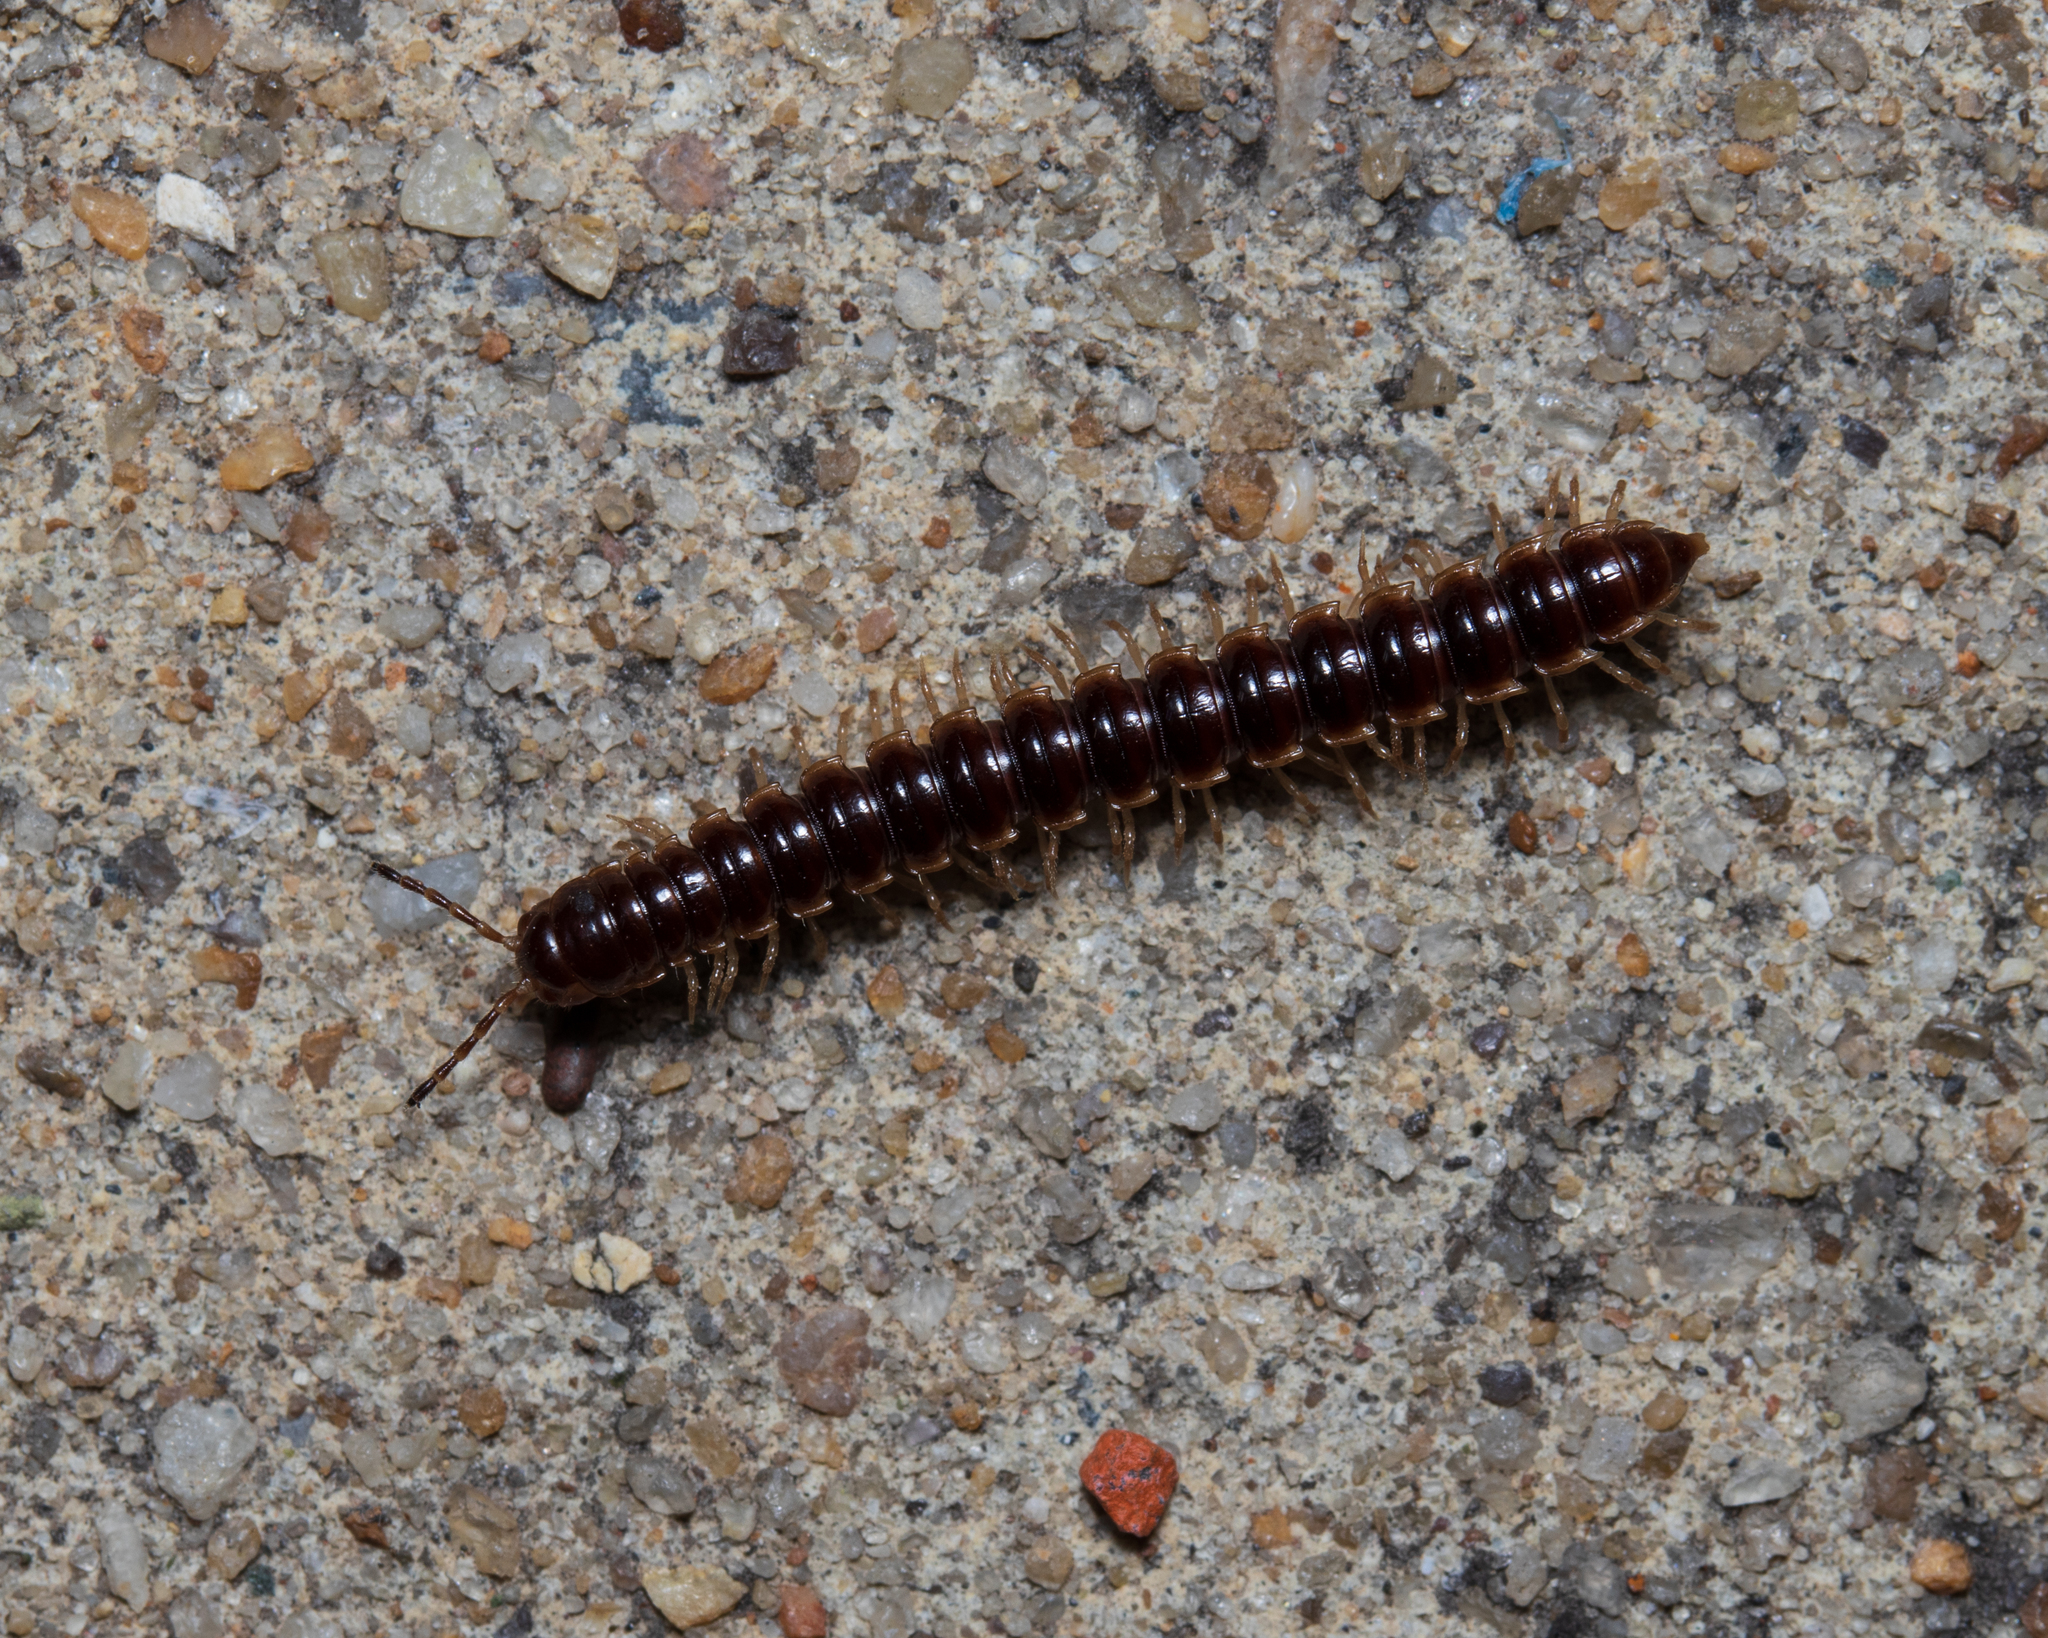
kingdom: Animalia
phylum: Arthropoda
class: Diplopoda
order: Polydesmida
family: Paradoxosomatidae
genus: Oxidus
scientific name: Oxidus gracilis
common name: Greenhouse millipede
